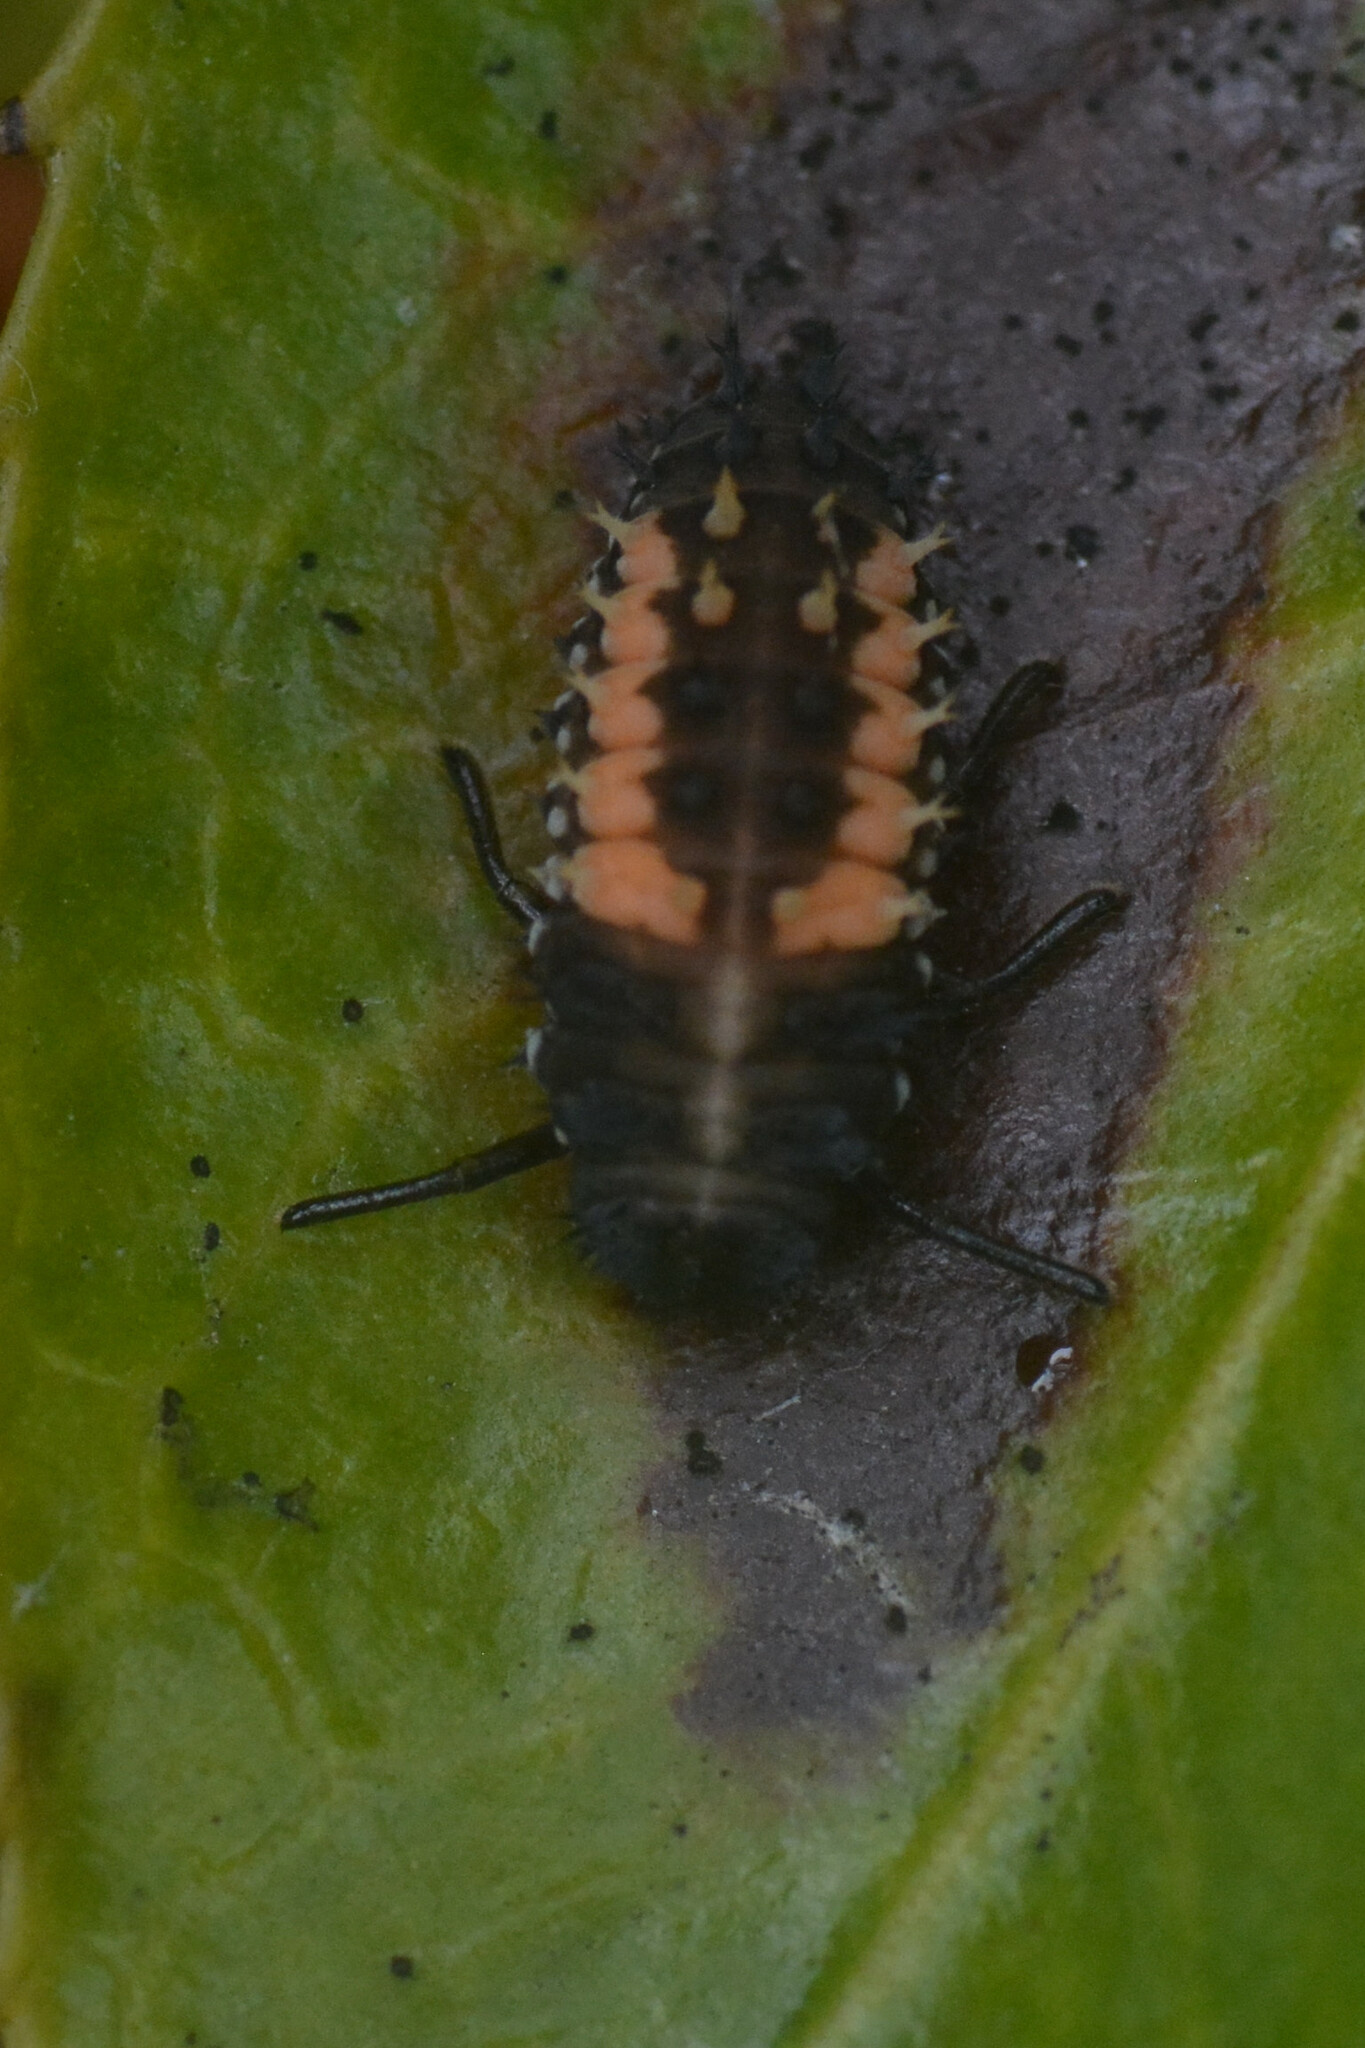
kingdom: Animalia
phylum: Arthropoda
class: Insecta
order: Coleoptera
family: Coccinellidae
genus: Harmonia
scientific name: Harmonia axyridis
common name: Harlequin ladybird
